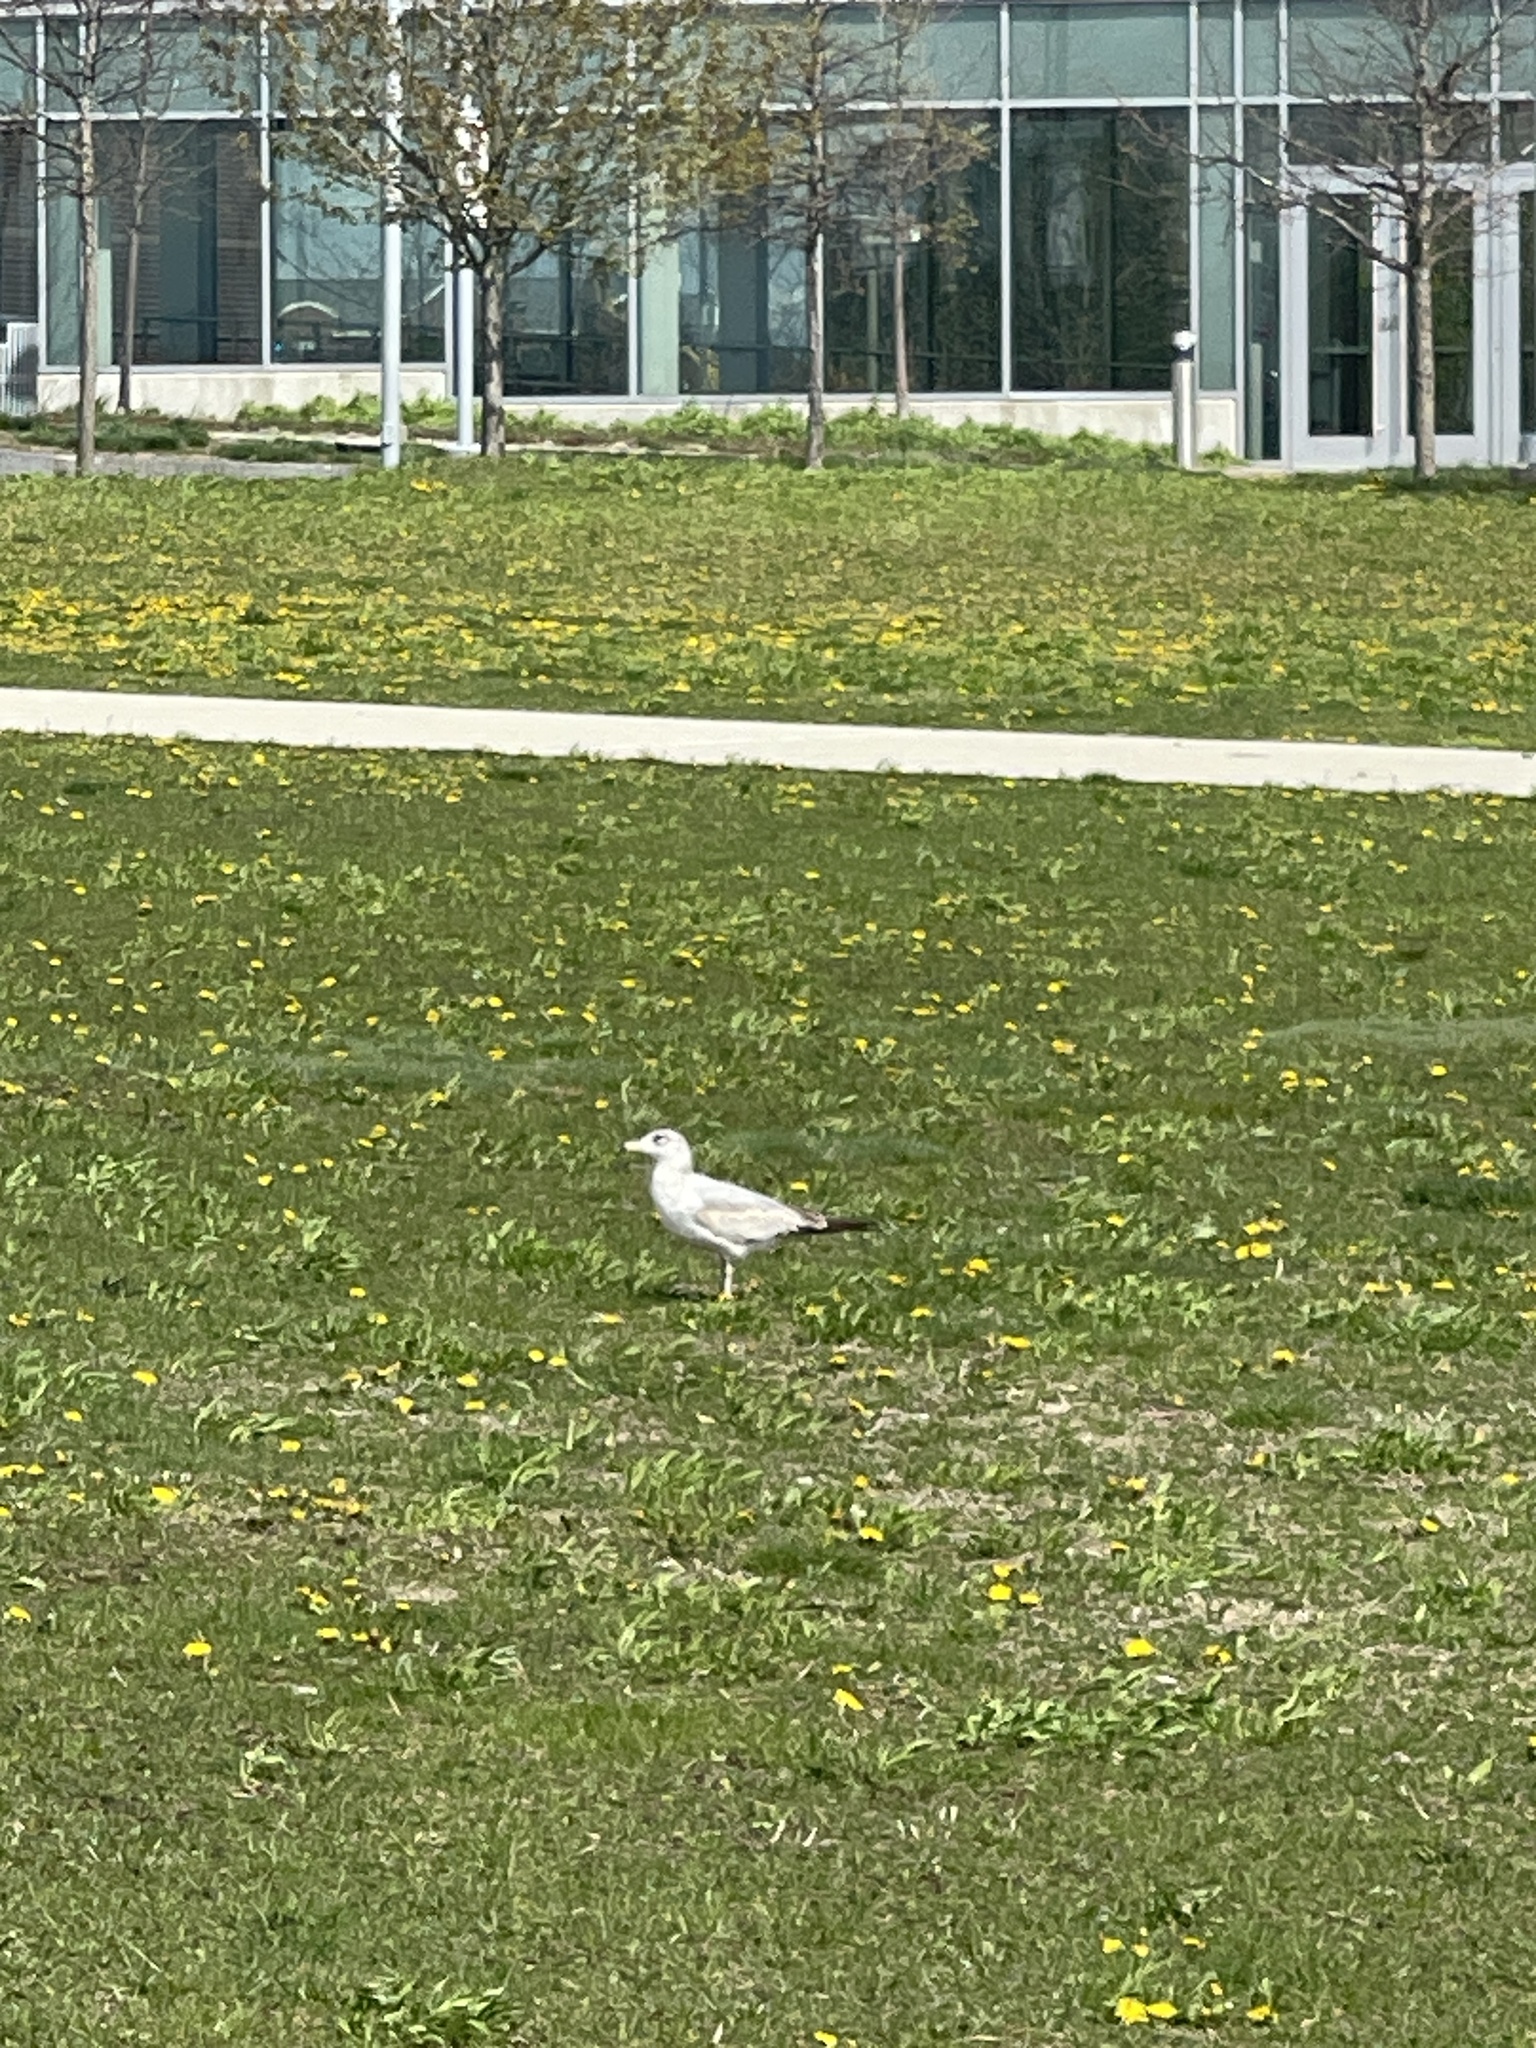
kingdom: Animalia
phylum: Chordata
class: Aves
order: Charadriiformes
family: Laridae
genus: Larus
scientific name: Larus delawarensis
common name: Ring-billed gull
